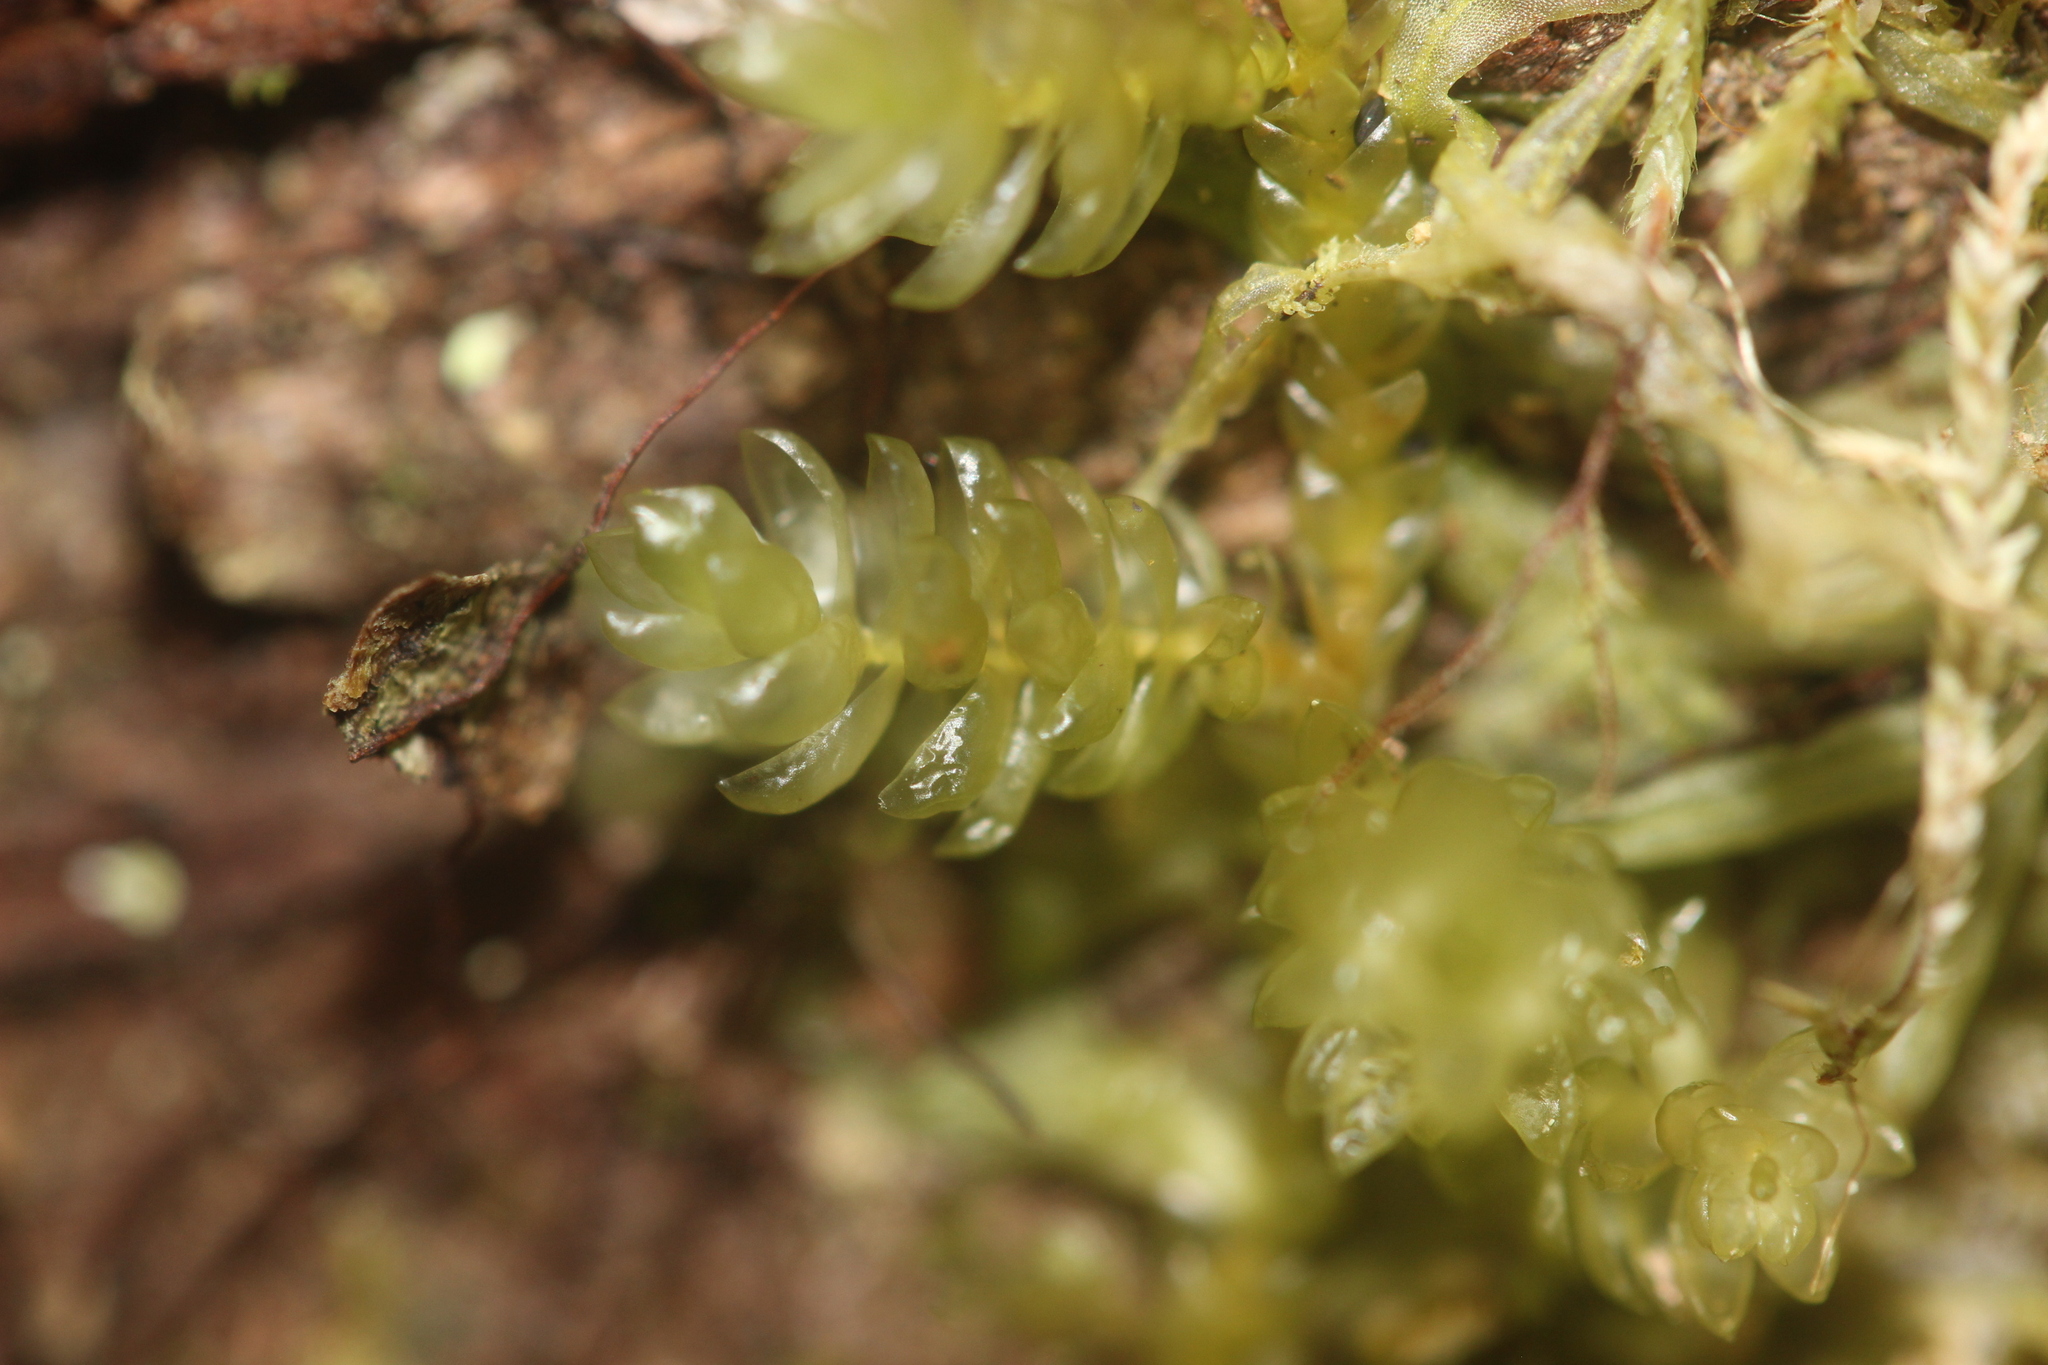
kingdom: Plantae
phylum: Bryophyta
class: Bryopsida
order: Hypnales
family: Lembophyllaceae
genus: Weymouthia
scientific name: Weymouthia cochlearifolia
